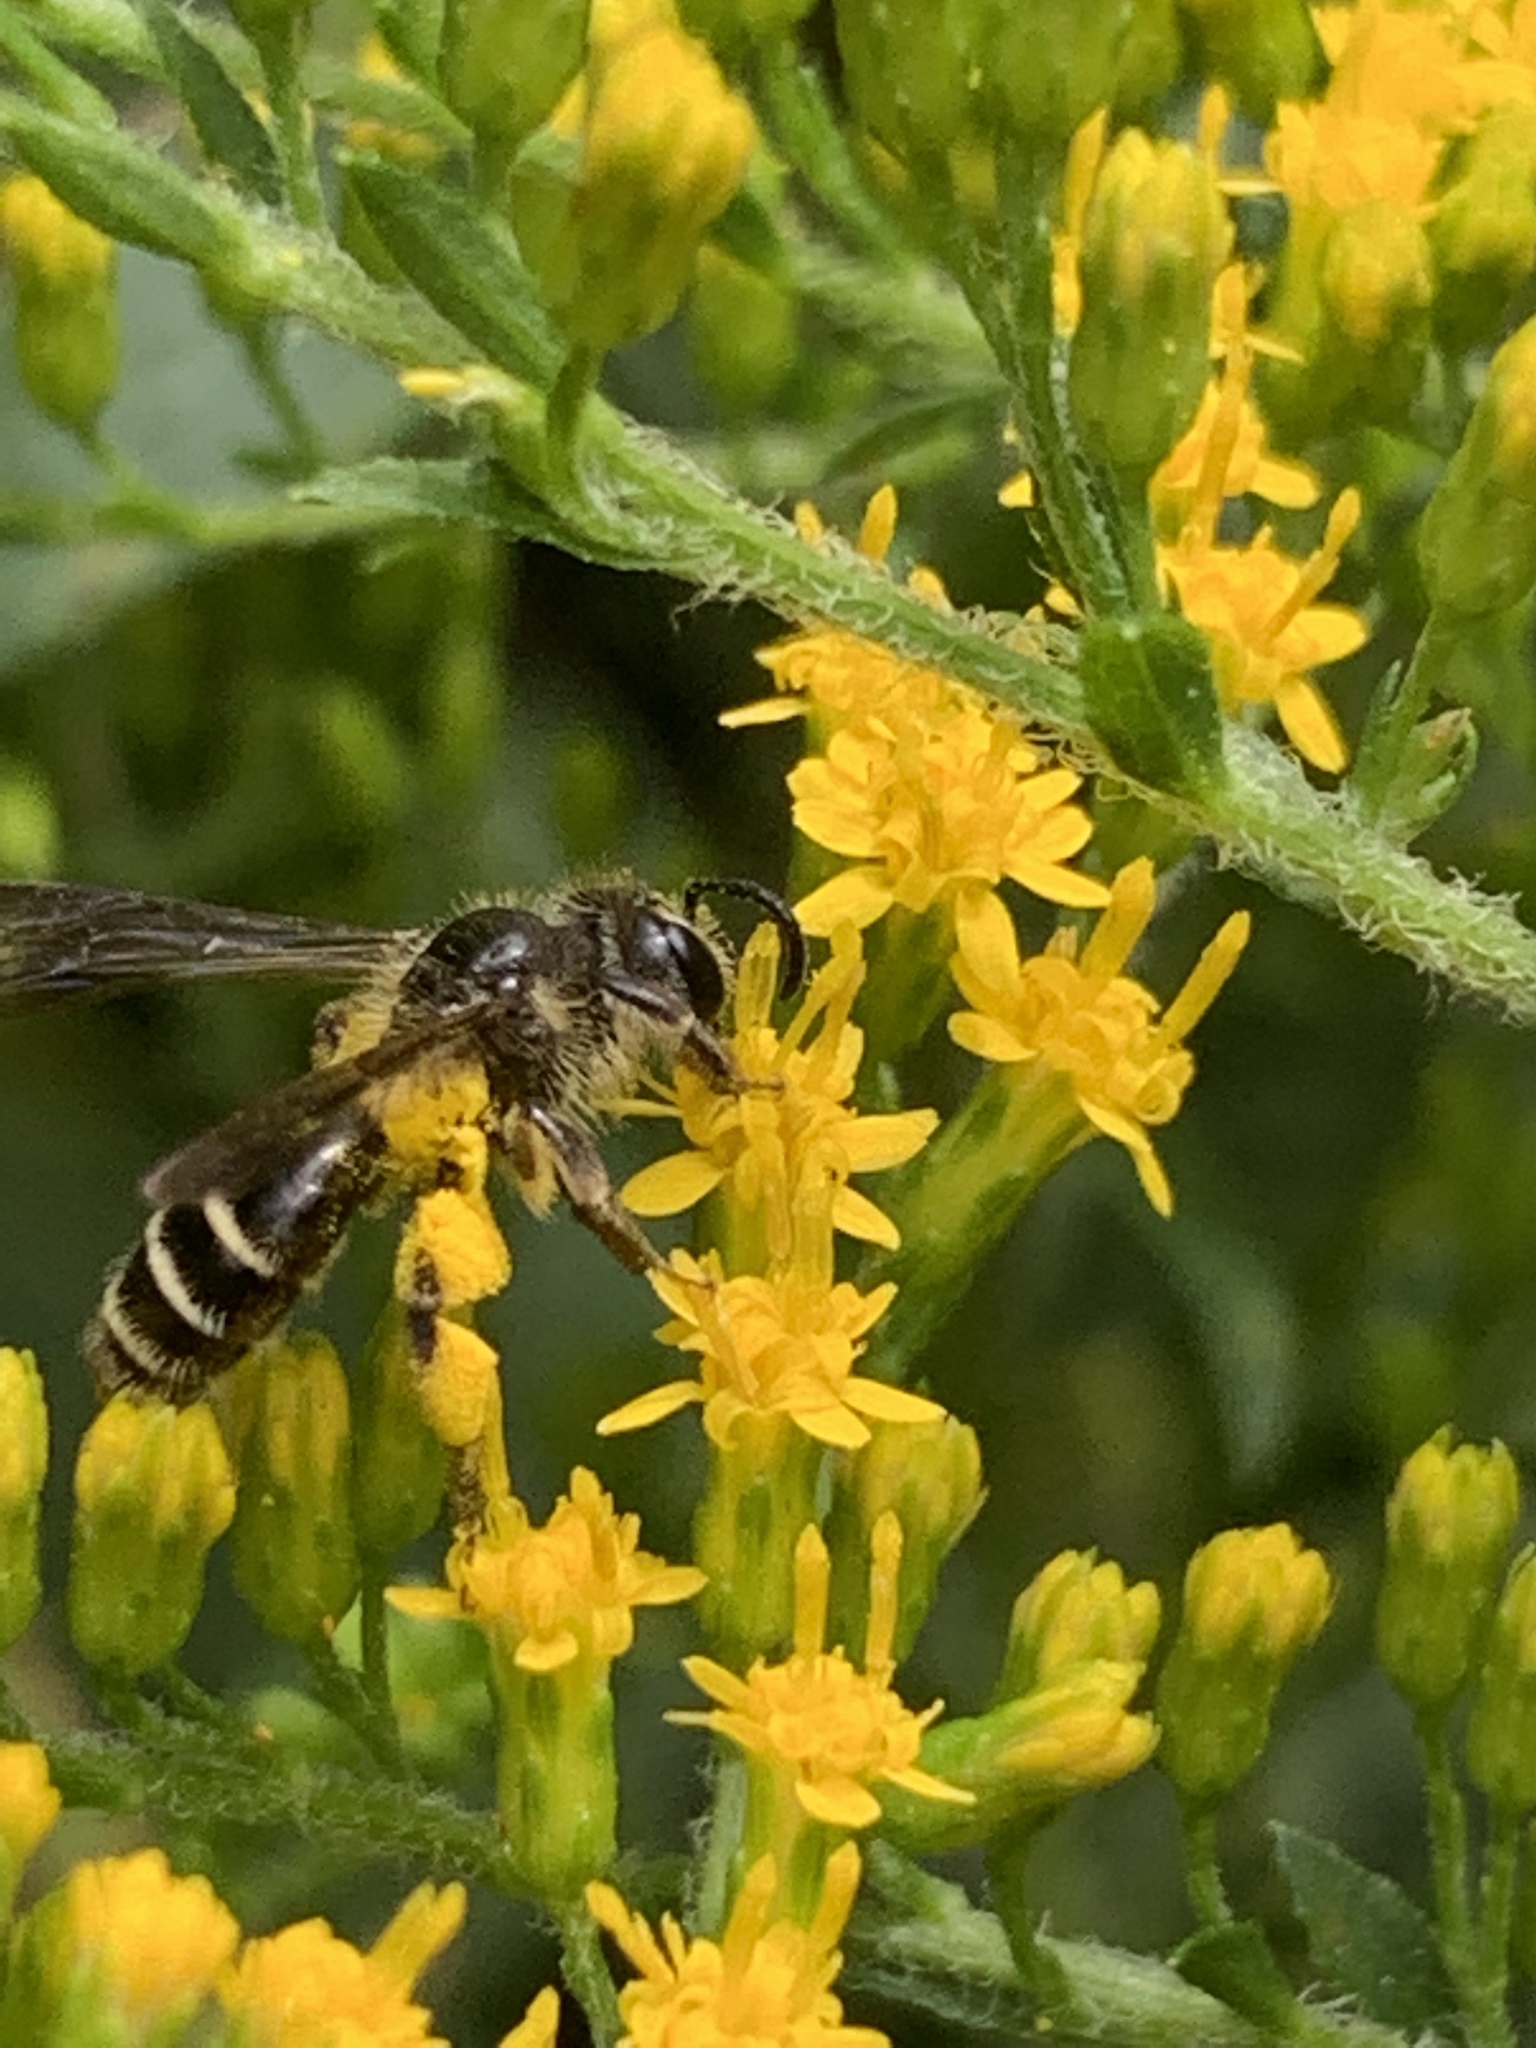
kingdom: Animalia
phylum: Arthropoda
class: Insecta
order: Hymenoptera
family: Andrenidae
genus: Andrena
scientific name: Andrena nubecula
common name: Cloudy-winged mining bee
